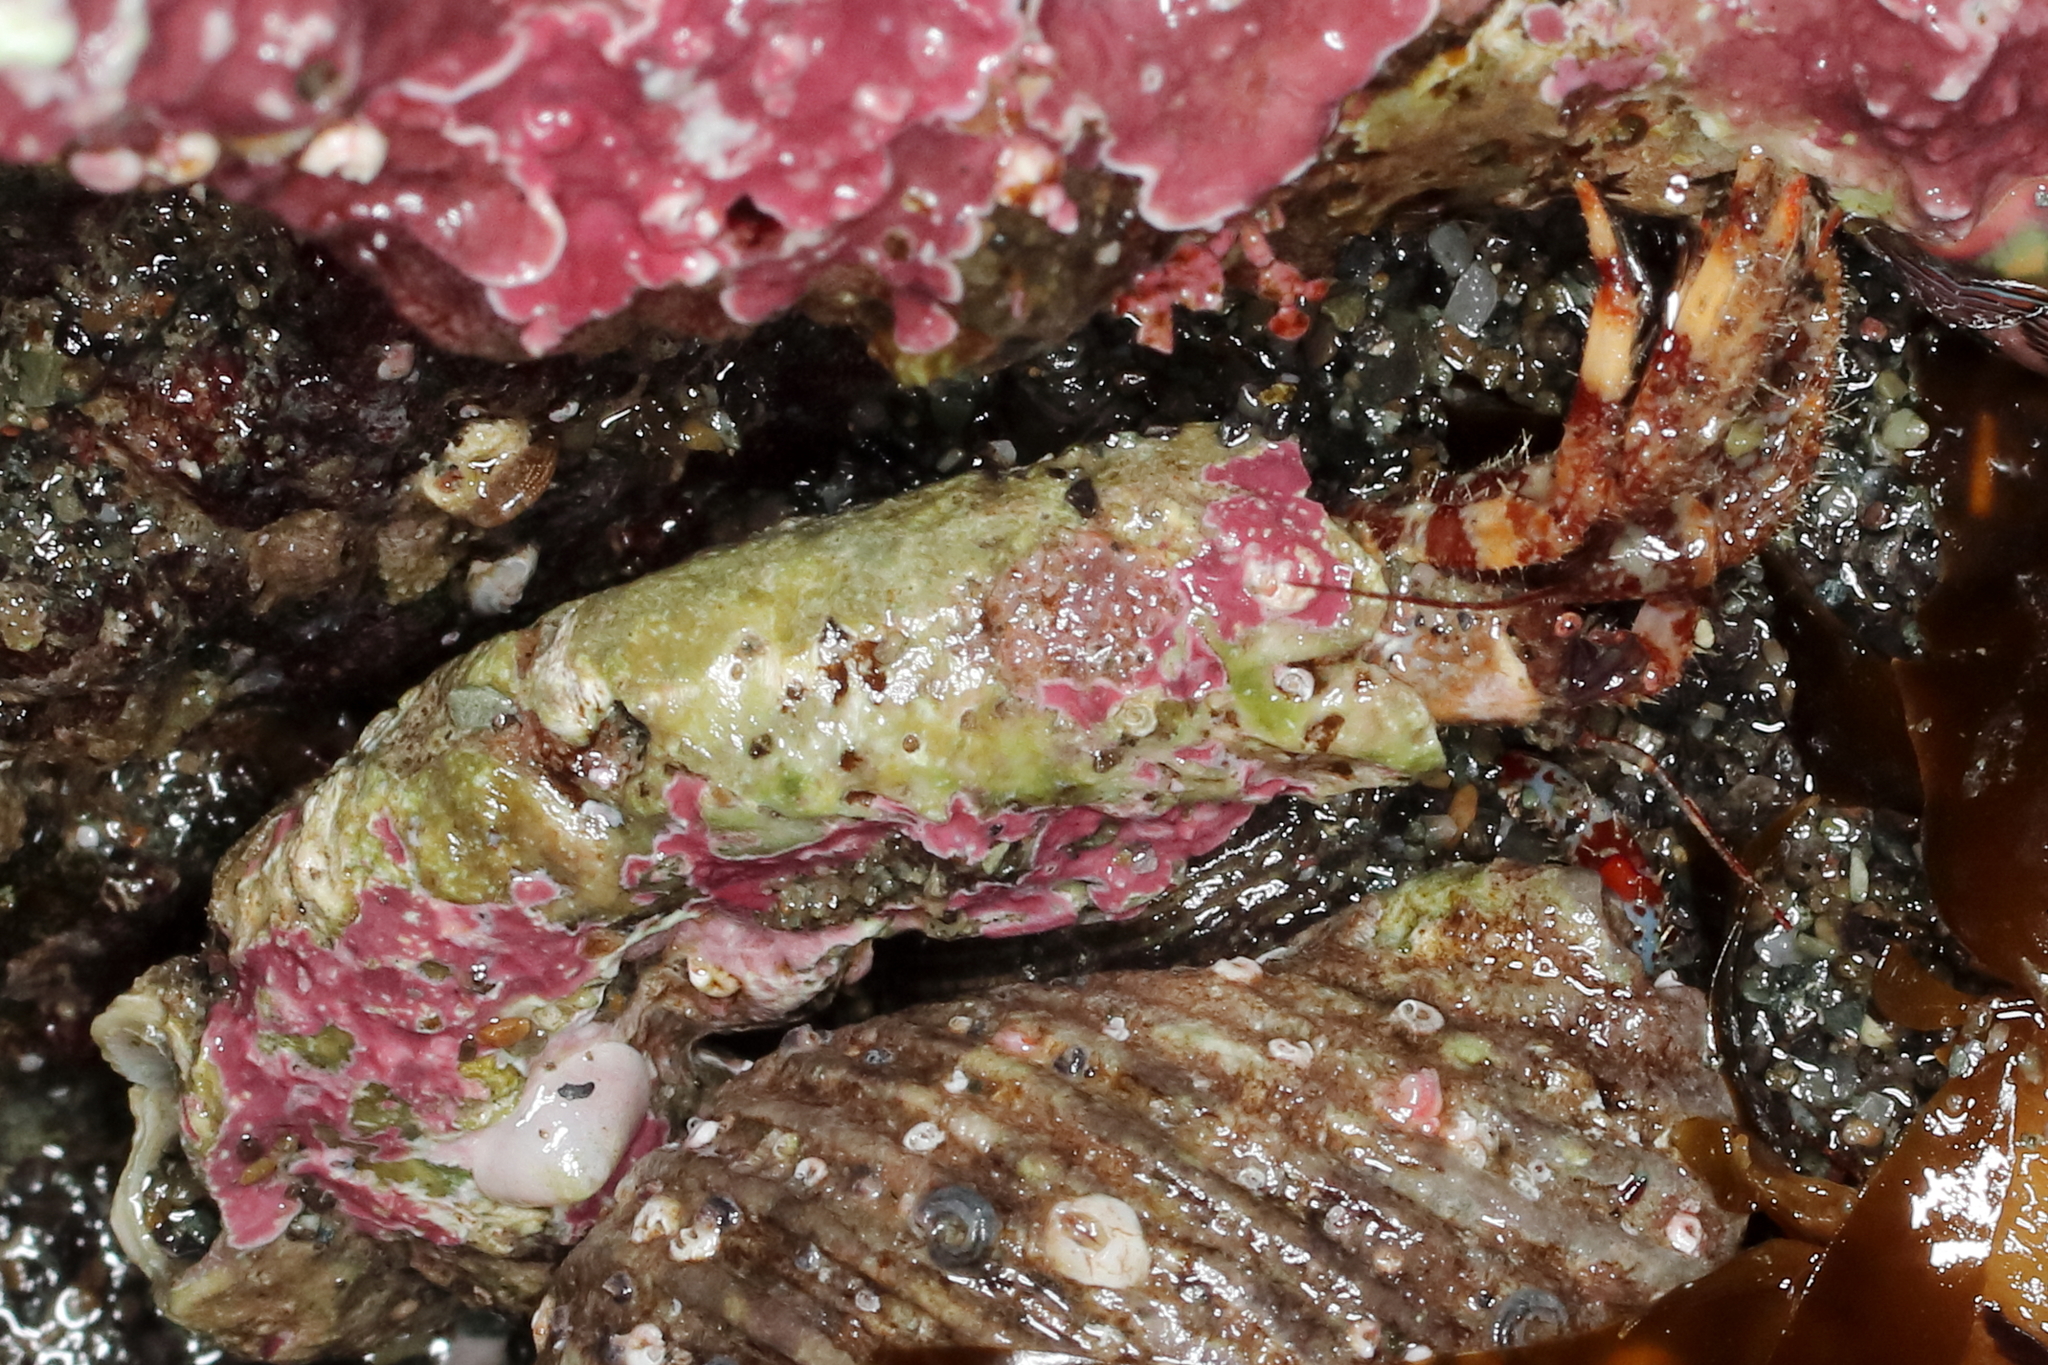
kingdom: Animalia
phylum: Arthropoda
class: Malacostraca
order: Decapoda
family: Paguridae
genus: Discorsopagurus
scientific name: Discorsopagurus schmitti
